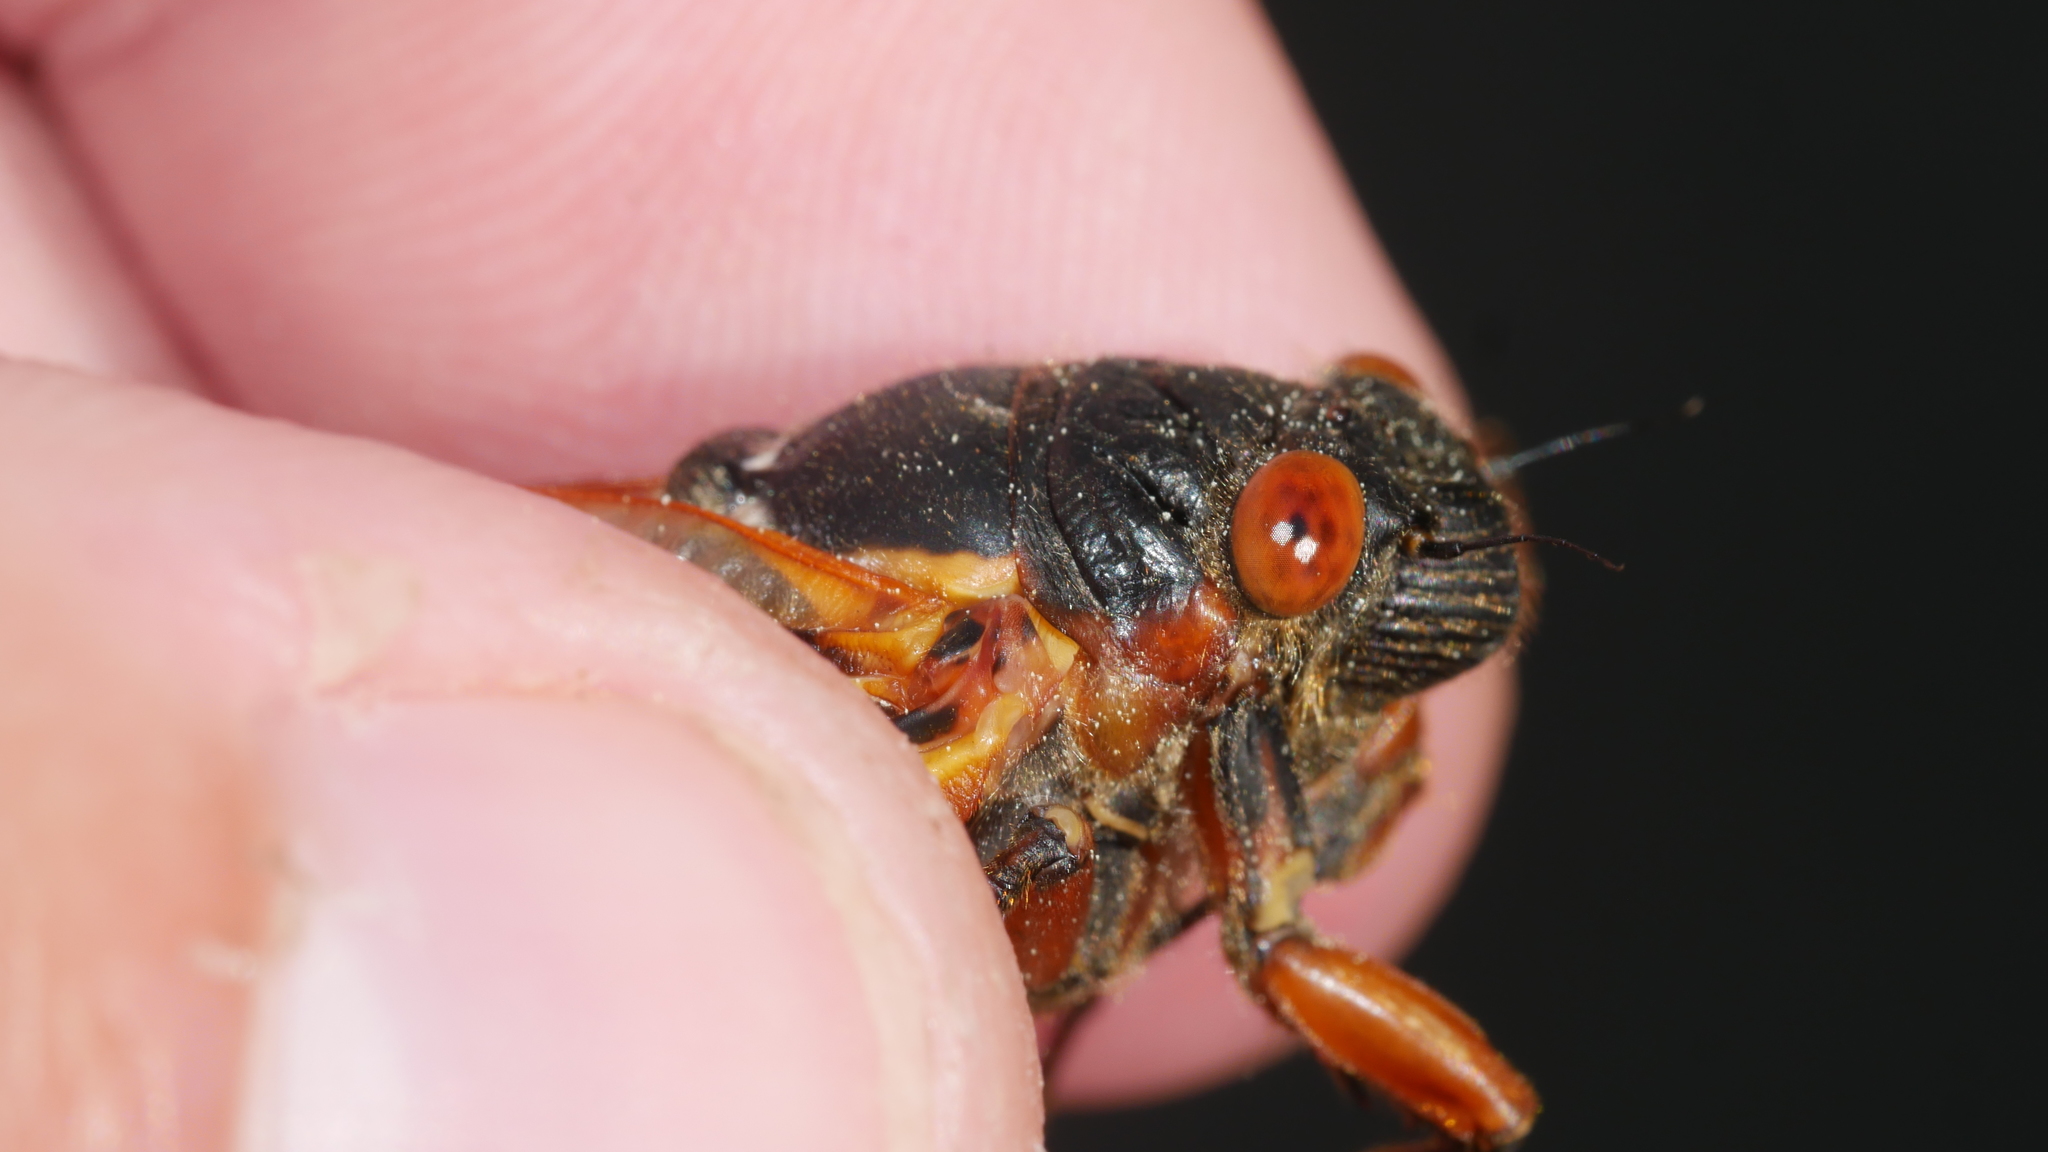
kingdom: Animalia
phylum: Arthropoda
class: Insecta
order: Hemiptera
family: Cicadidae
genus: Magicicada
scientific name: Magicicada septendecim
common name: Periodical cicada
